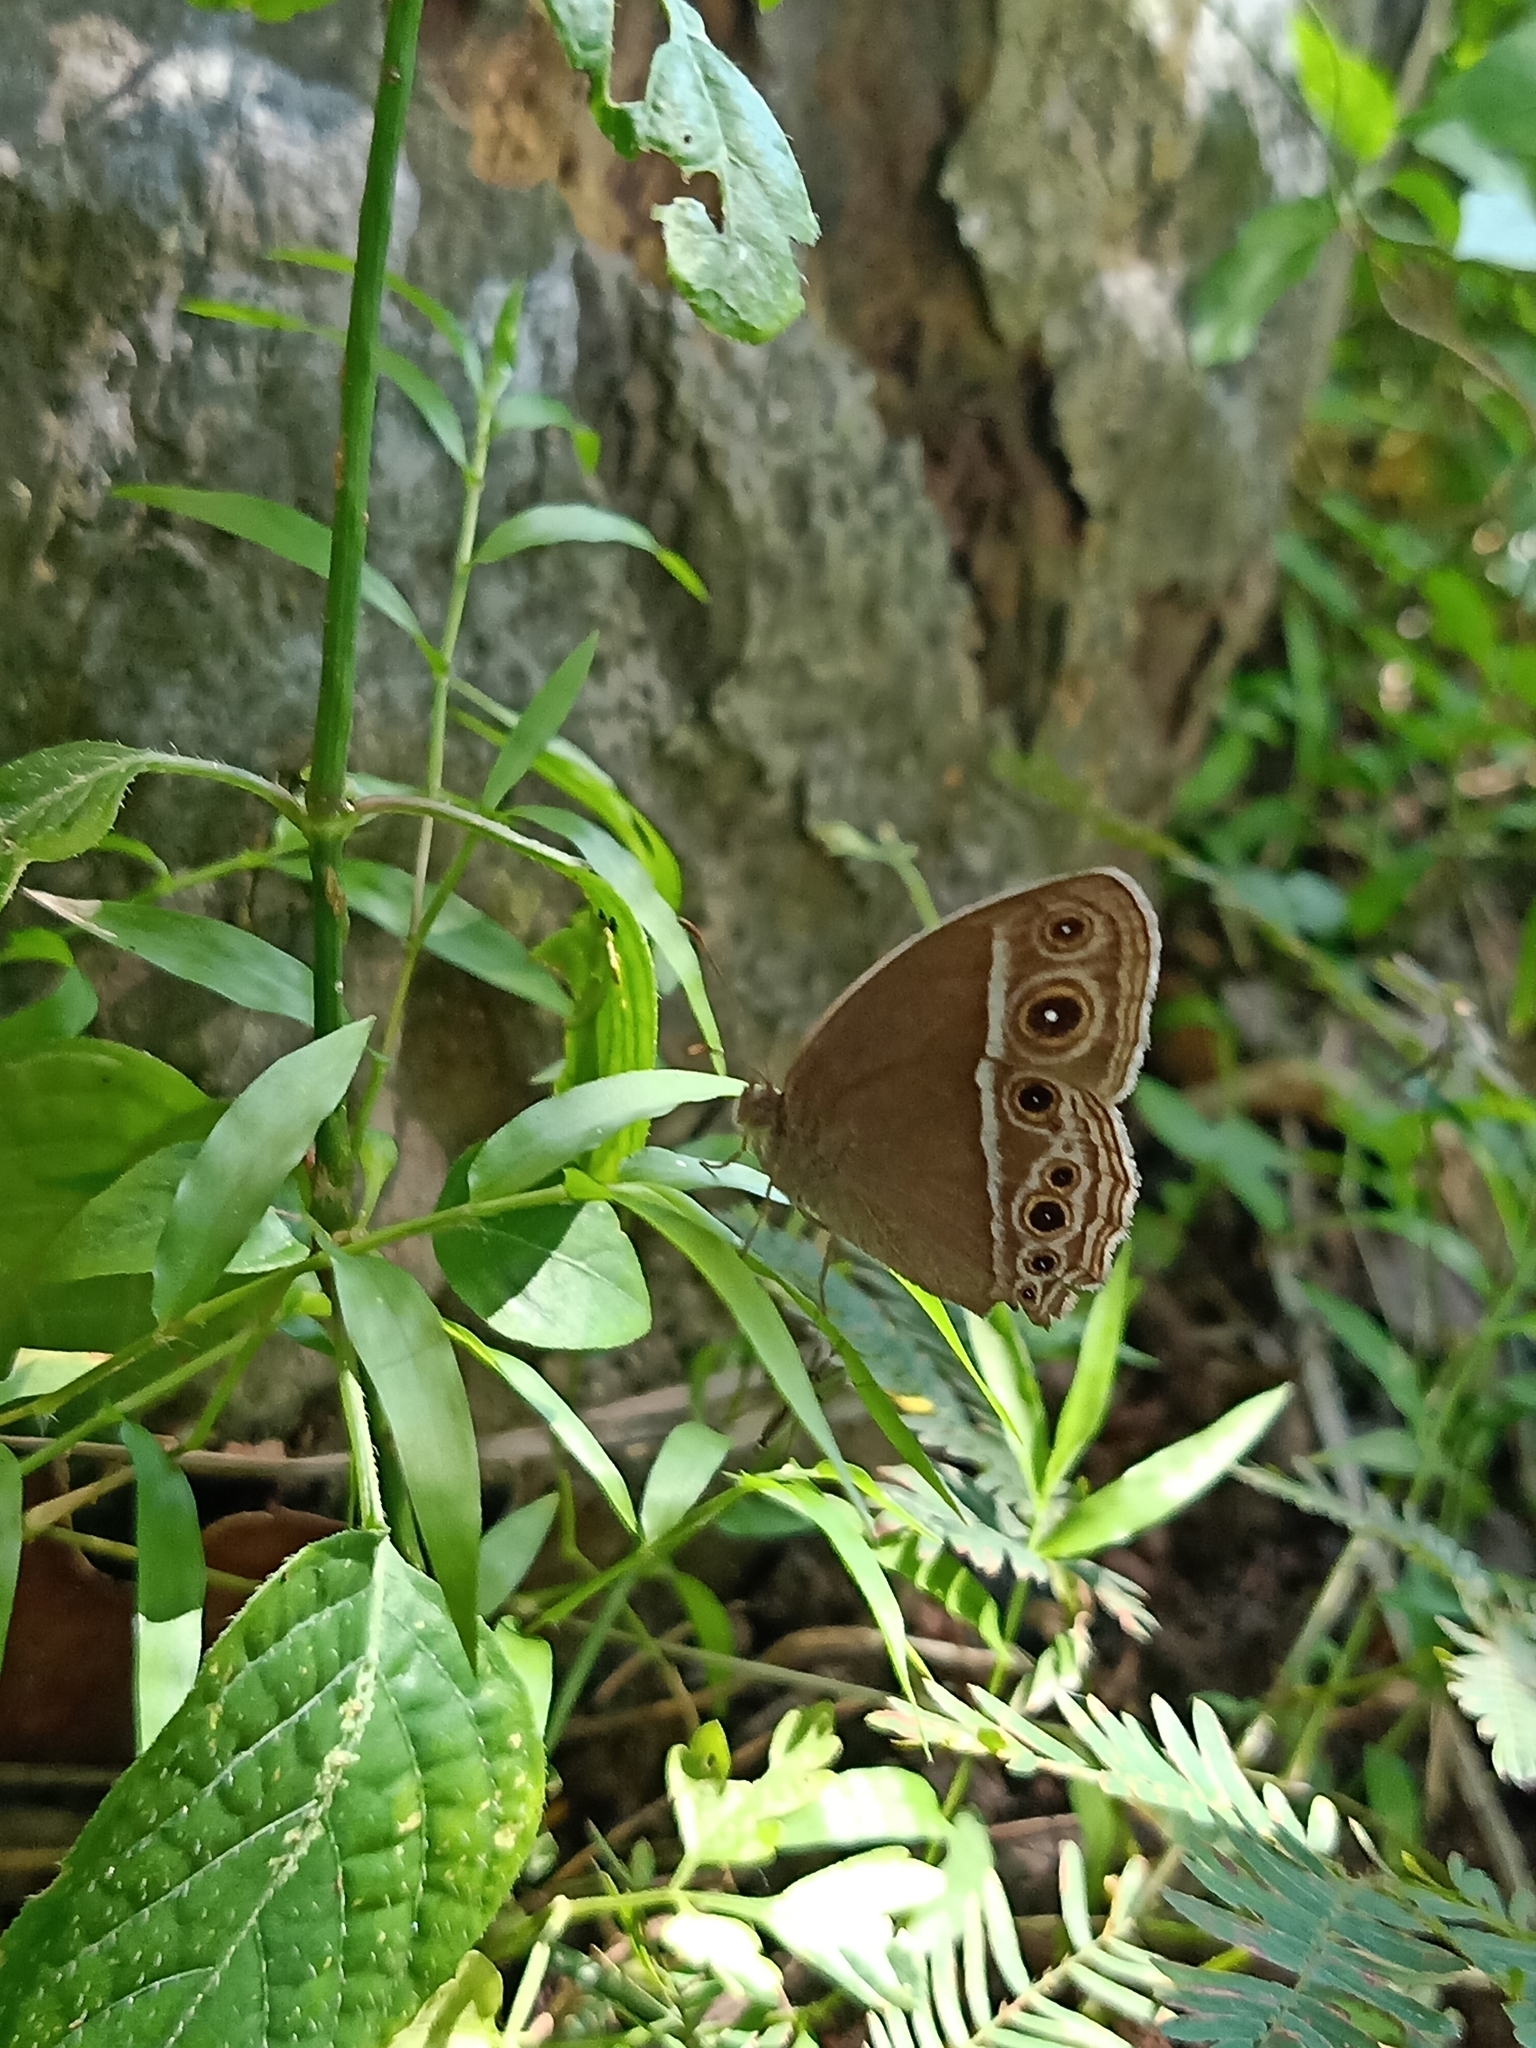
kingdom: Animalia
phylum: Arthropoda
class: Insecta
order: Lepidoptera
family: Nymphalidae
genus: Mycalesis
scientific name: Mycalesis mineus
